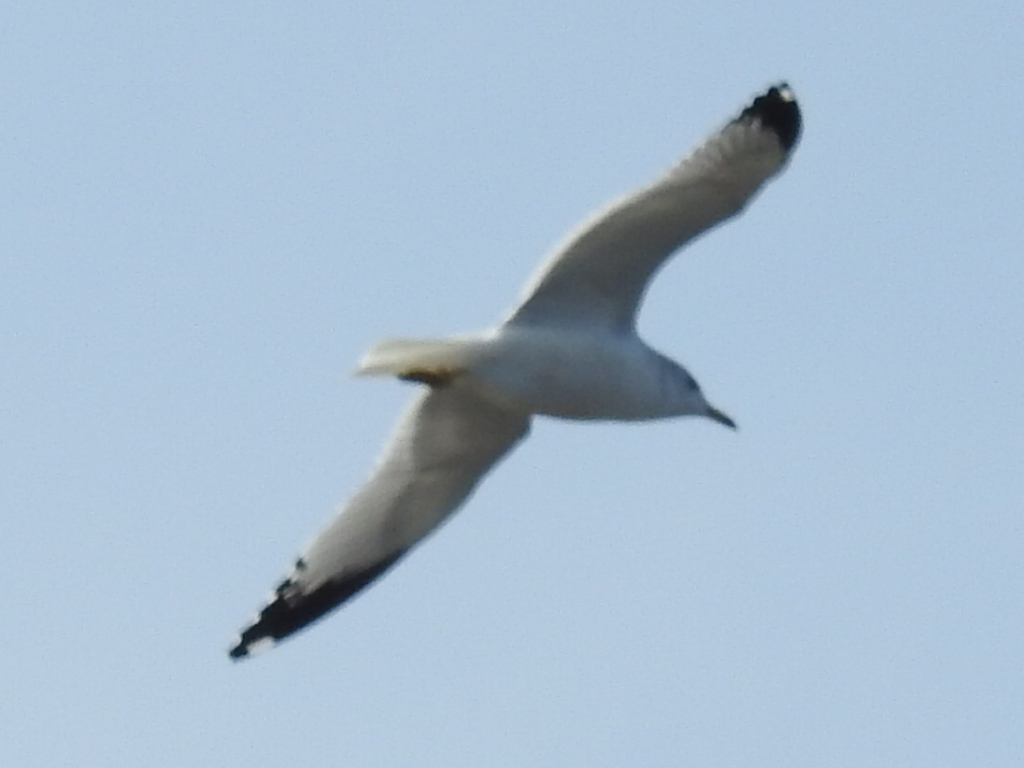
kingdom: Animalia
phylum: Chordata
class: Aves
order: Charadriiformes
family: Laridae
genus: Larus
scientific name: Larus delawarensis
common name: Ring-billed gull
